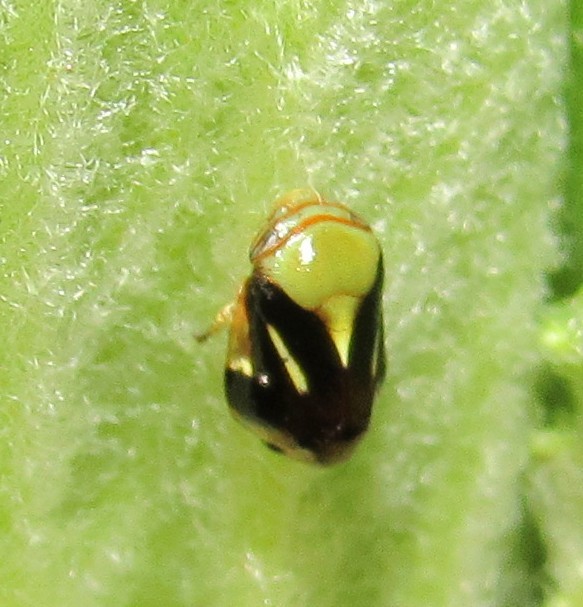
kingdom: Animalia
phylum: Arthropoda
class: Insecta
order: Hemiptera
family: Clastopteridae
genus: Clastoptera
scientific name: Clastoptera cimicoides
